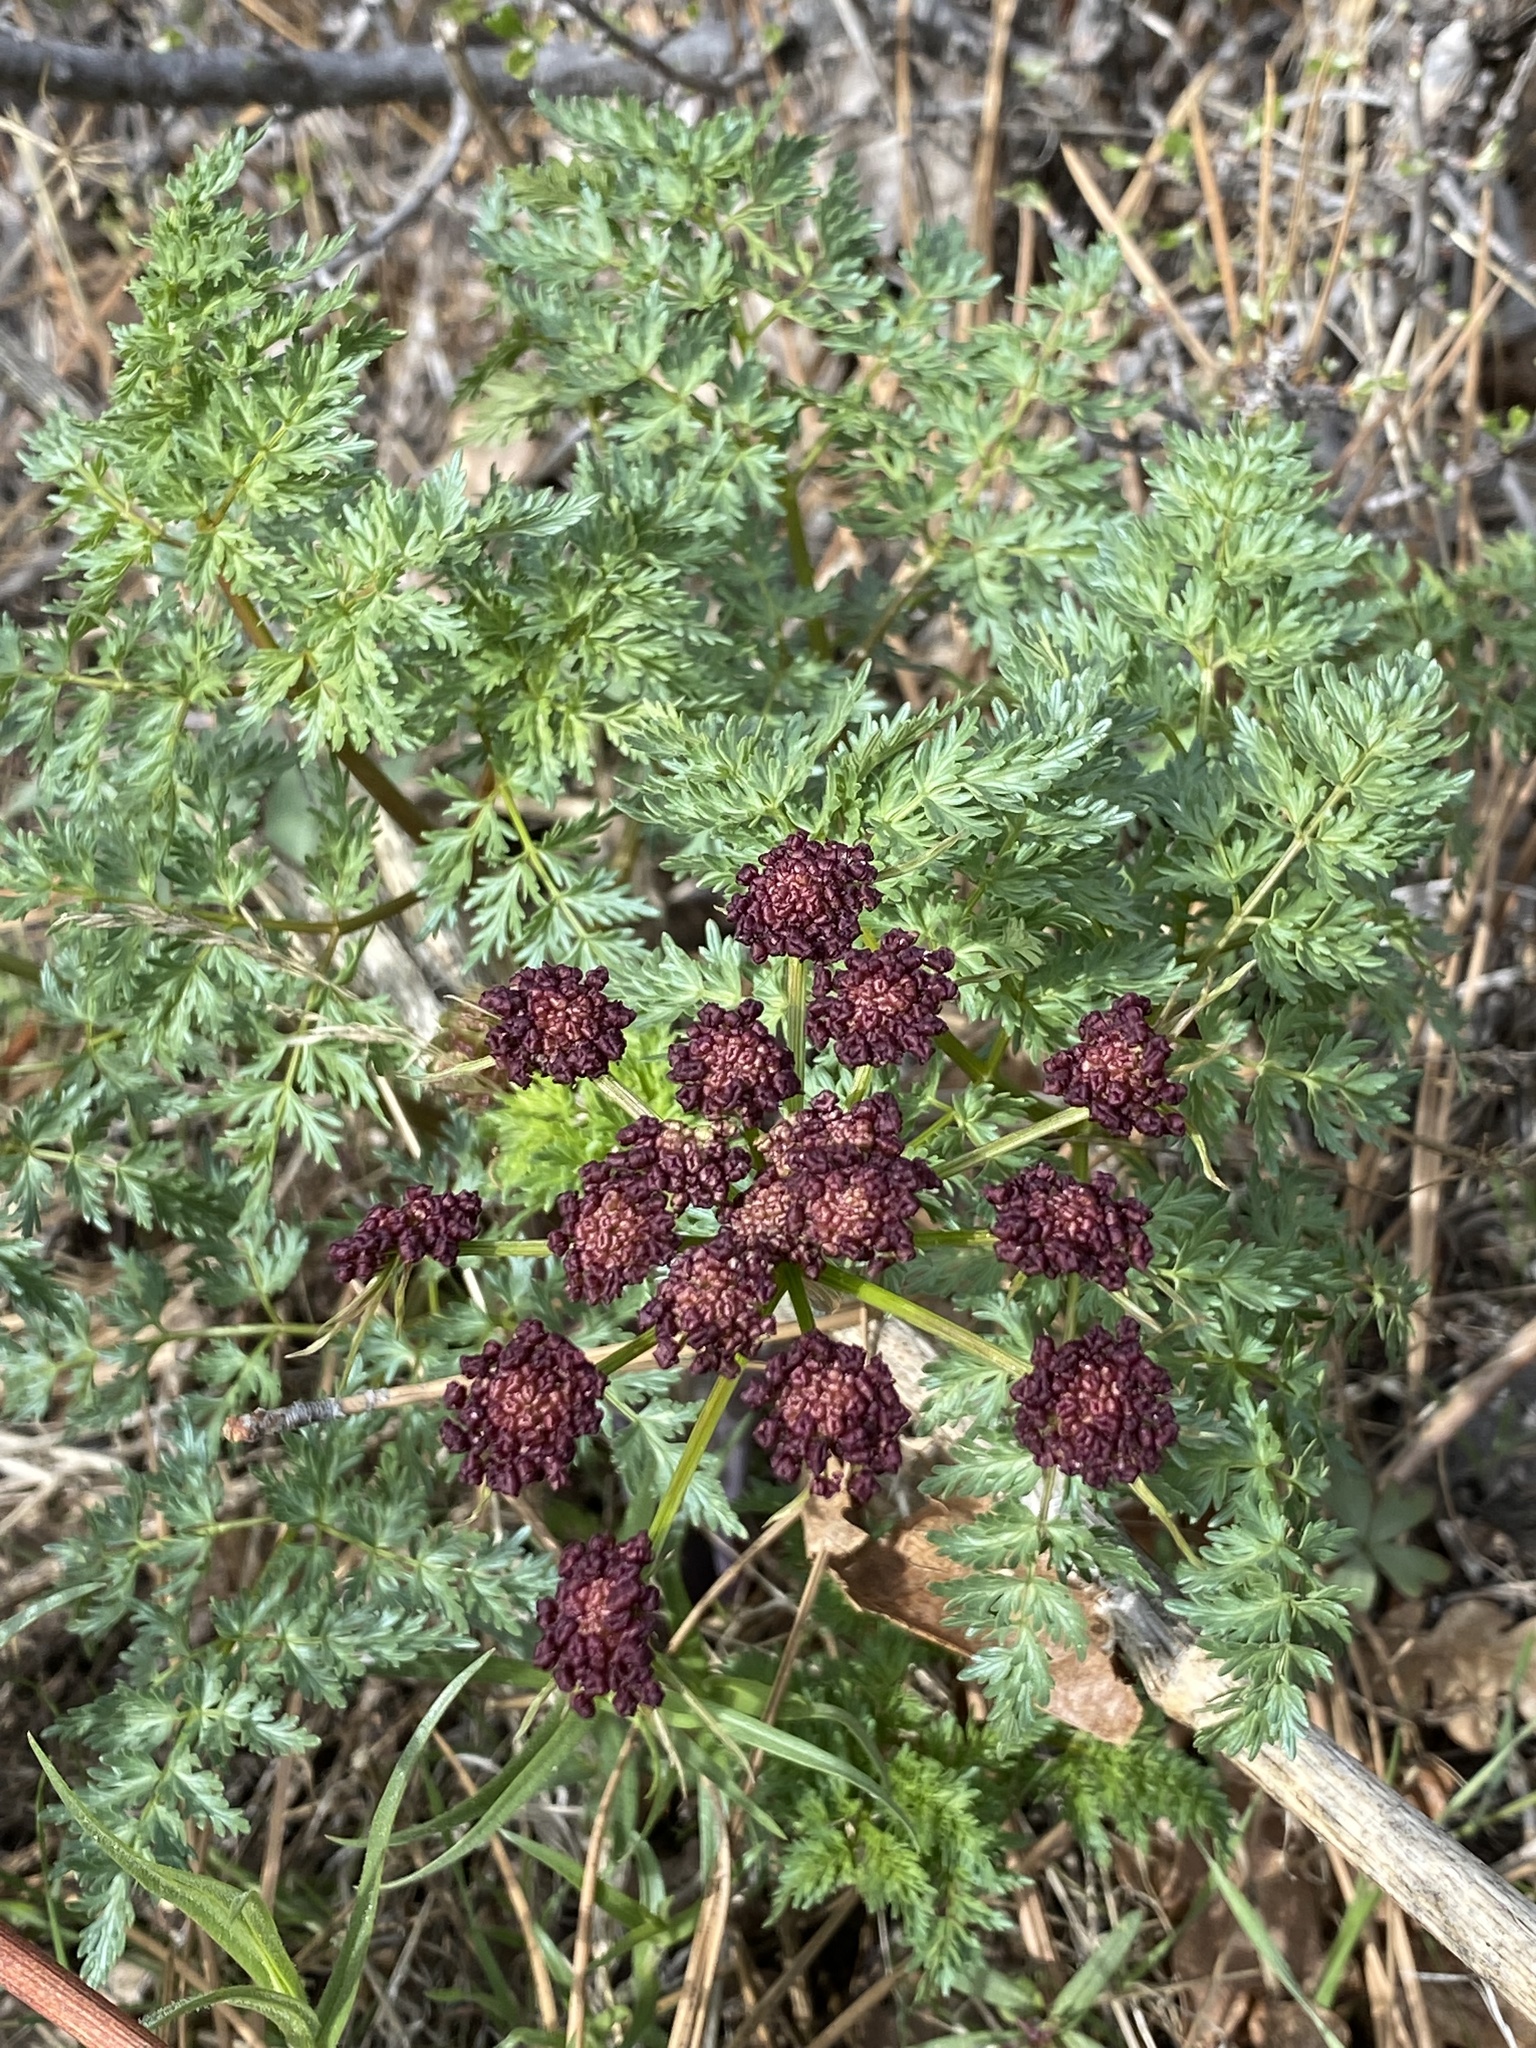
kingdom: Plantae
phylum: Tracheophyta
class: Magnoliopsida
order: Apiales
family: Apiaceae
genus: Lomatium
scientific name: Lomatium dissectum
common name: Lomatium
